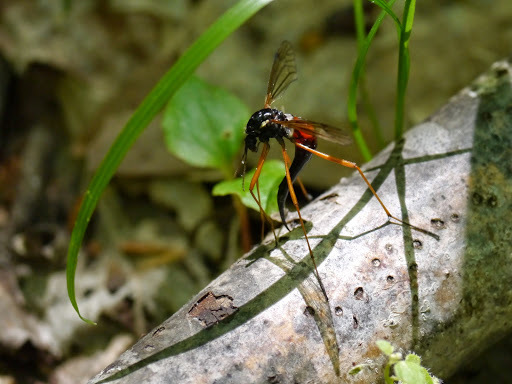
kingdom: Animalia
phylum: Arthropoda
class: Insecta
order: Diptera
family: Tipulidae
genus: Tanyptera
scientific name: Tanyptera dorsalis
